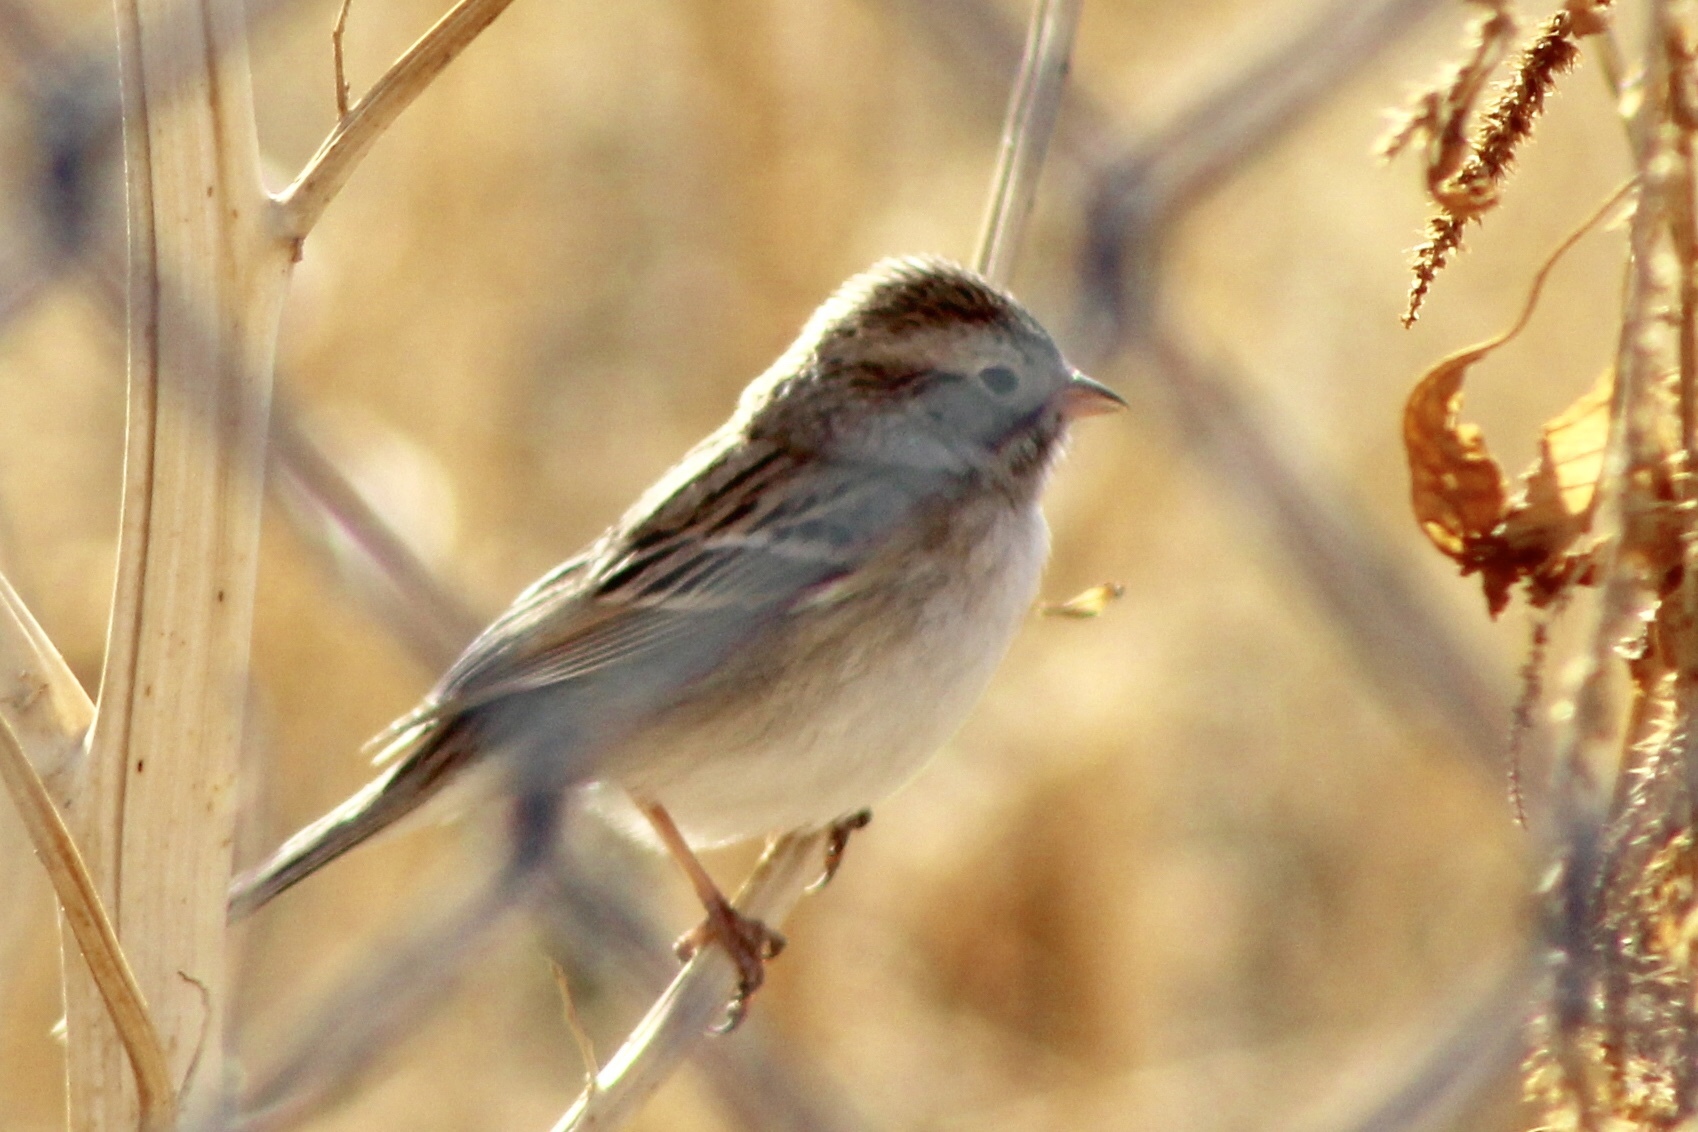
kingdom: Animalia
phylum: Chordata
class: Aves
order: Passeriformes
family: Passerellidae
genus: Spizella
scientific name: Spizella breweri
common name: Brewer's sparrow
